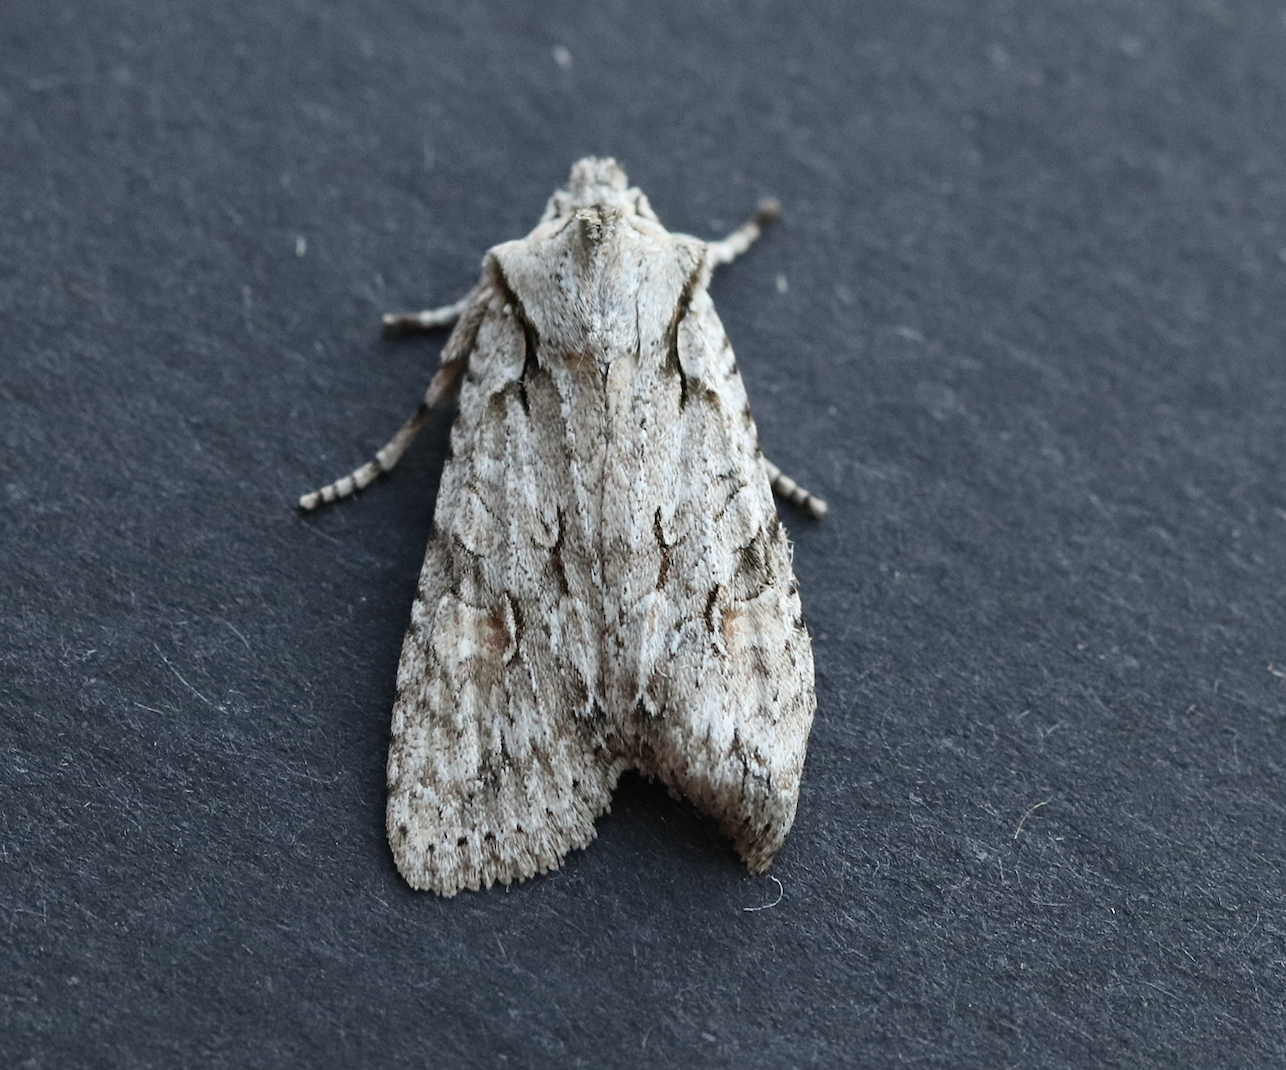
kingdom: Animalia
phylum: Arthropoda
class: Insecta
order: Lepidoptera
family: Noctuidae
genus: Lithophane
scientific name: Lithophane ornitopus
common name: Grey shoulder-knot
